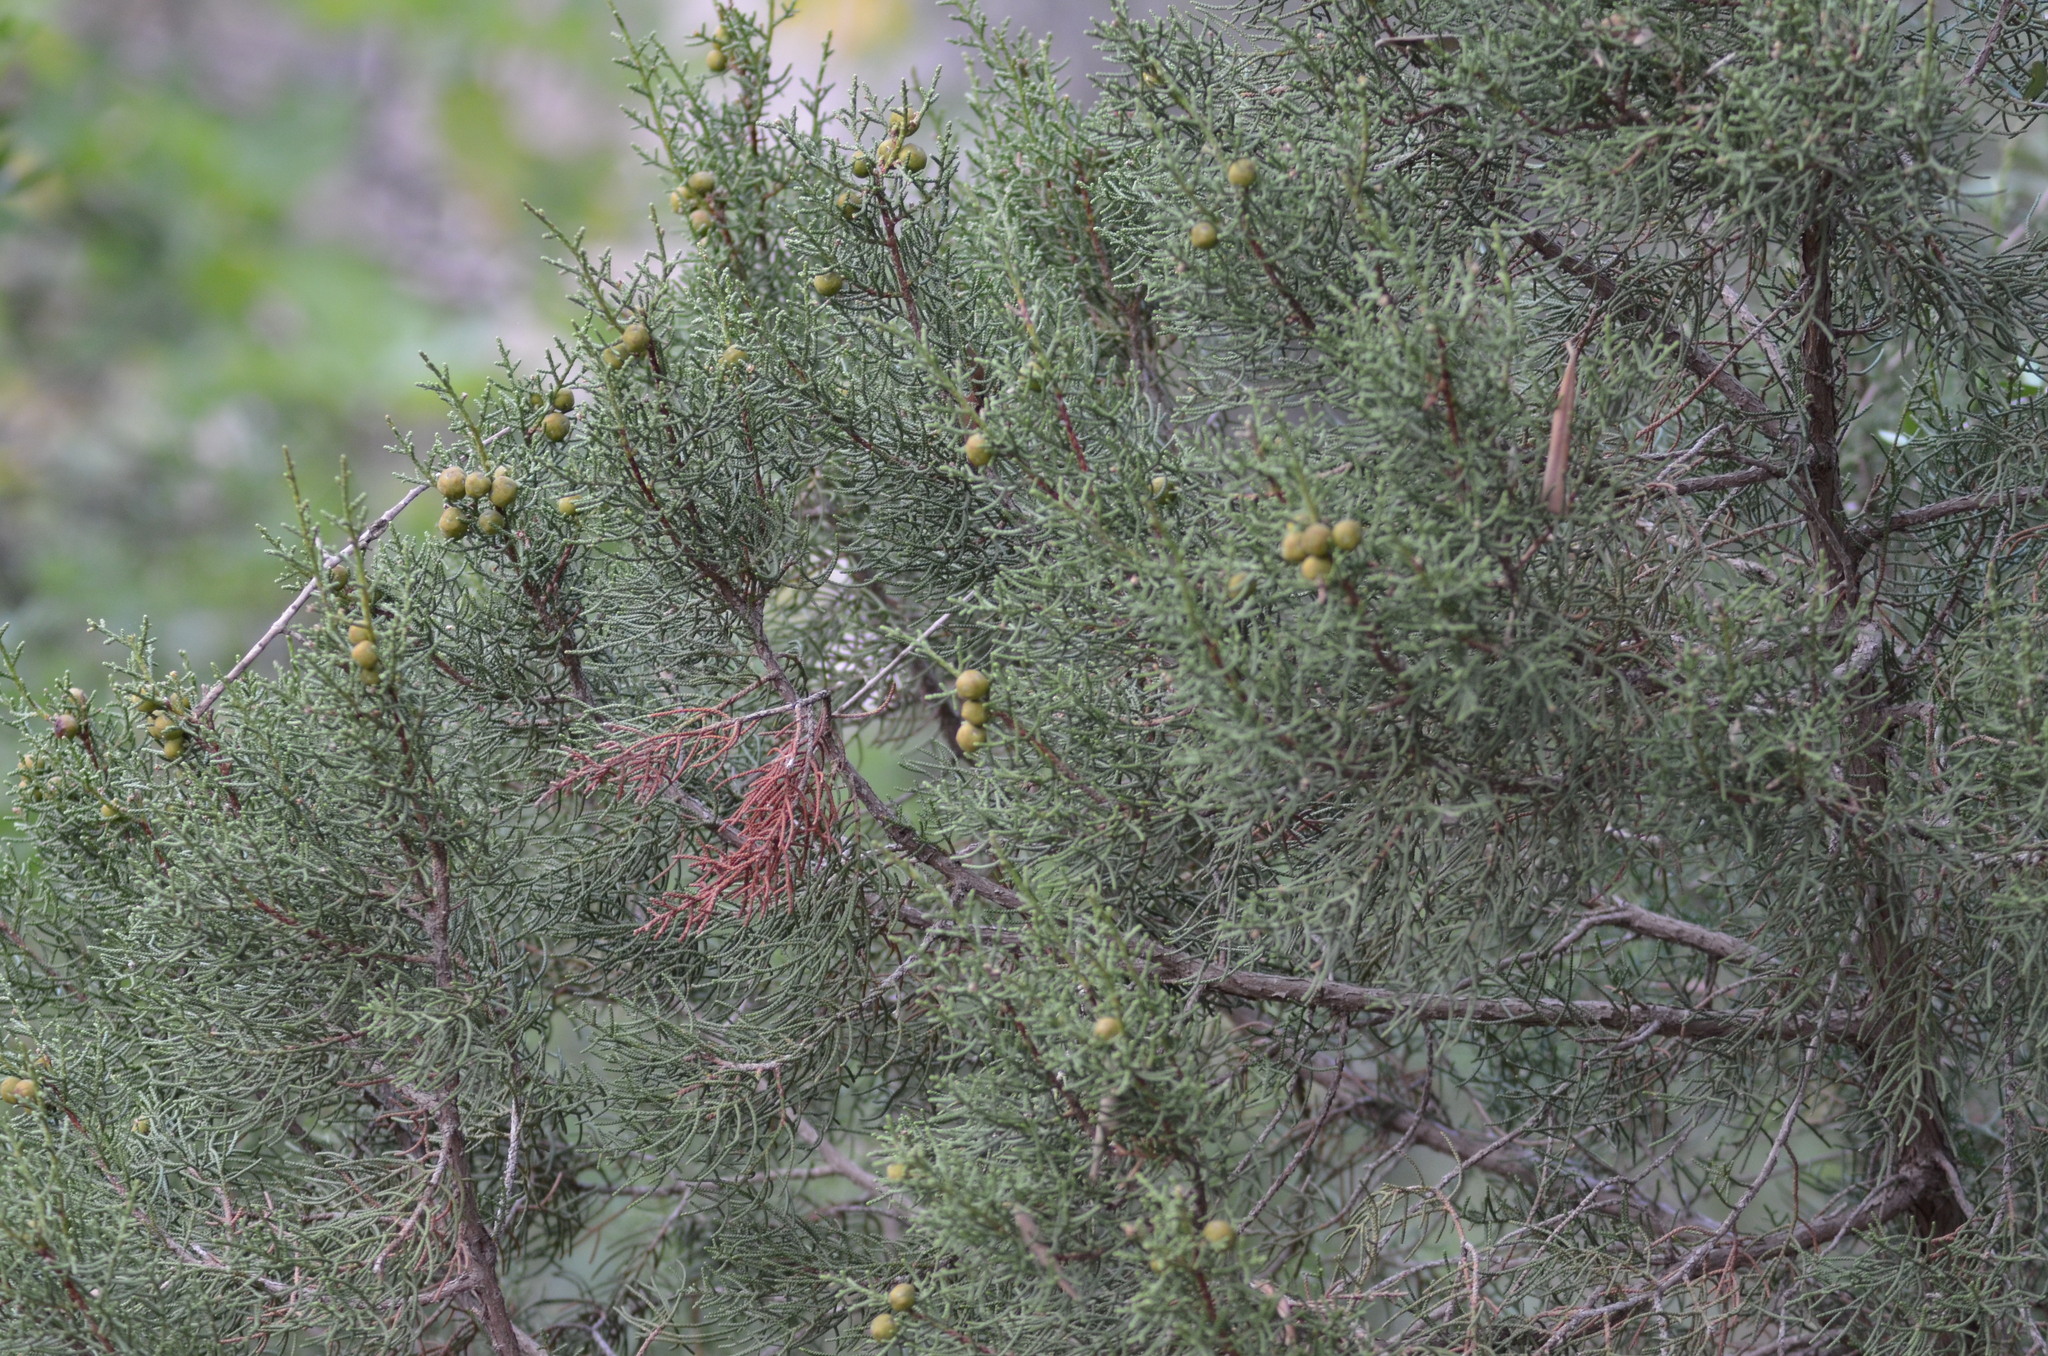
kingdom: Plantae
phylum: Tracheophyta
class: Pinopsida
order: Pinales
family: Cupressaceae
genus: Juniperus
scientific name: Juniperus phoenicea
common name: Phoenician juniper
